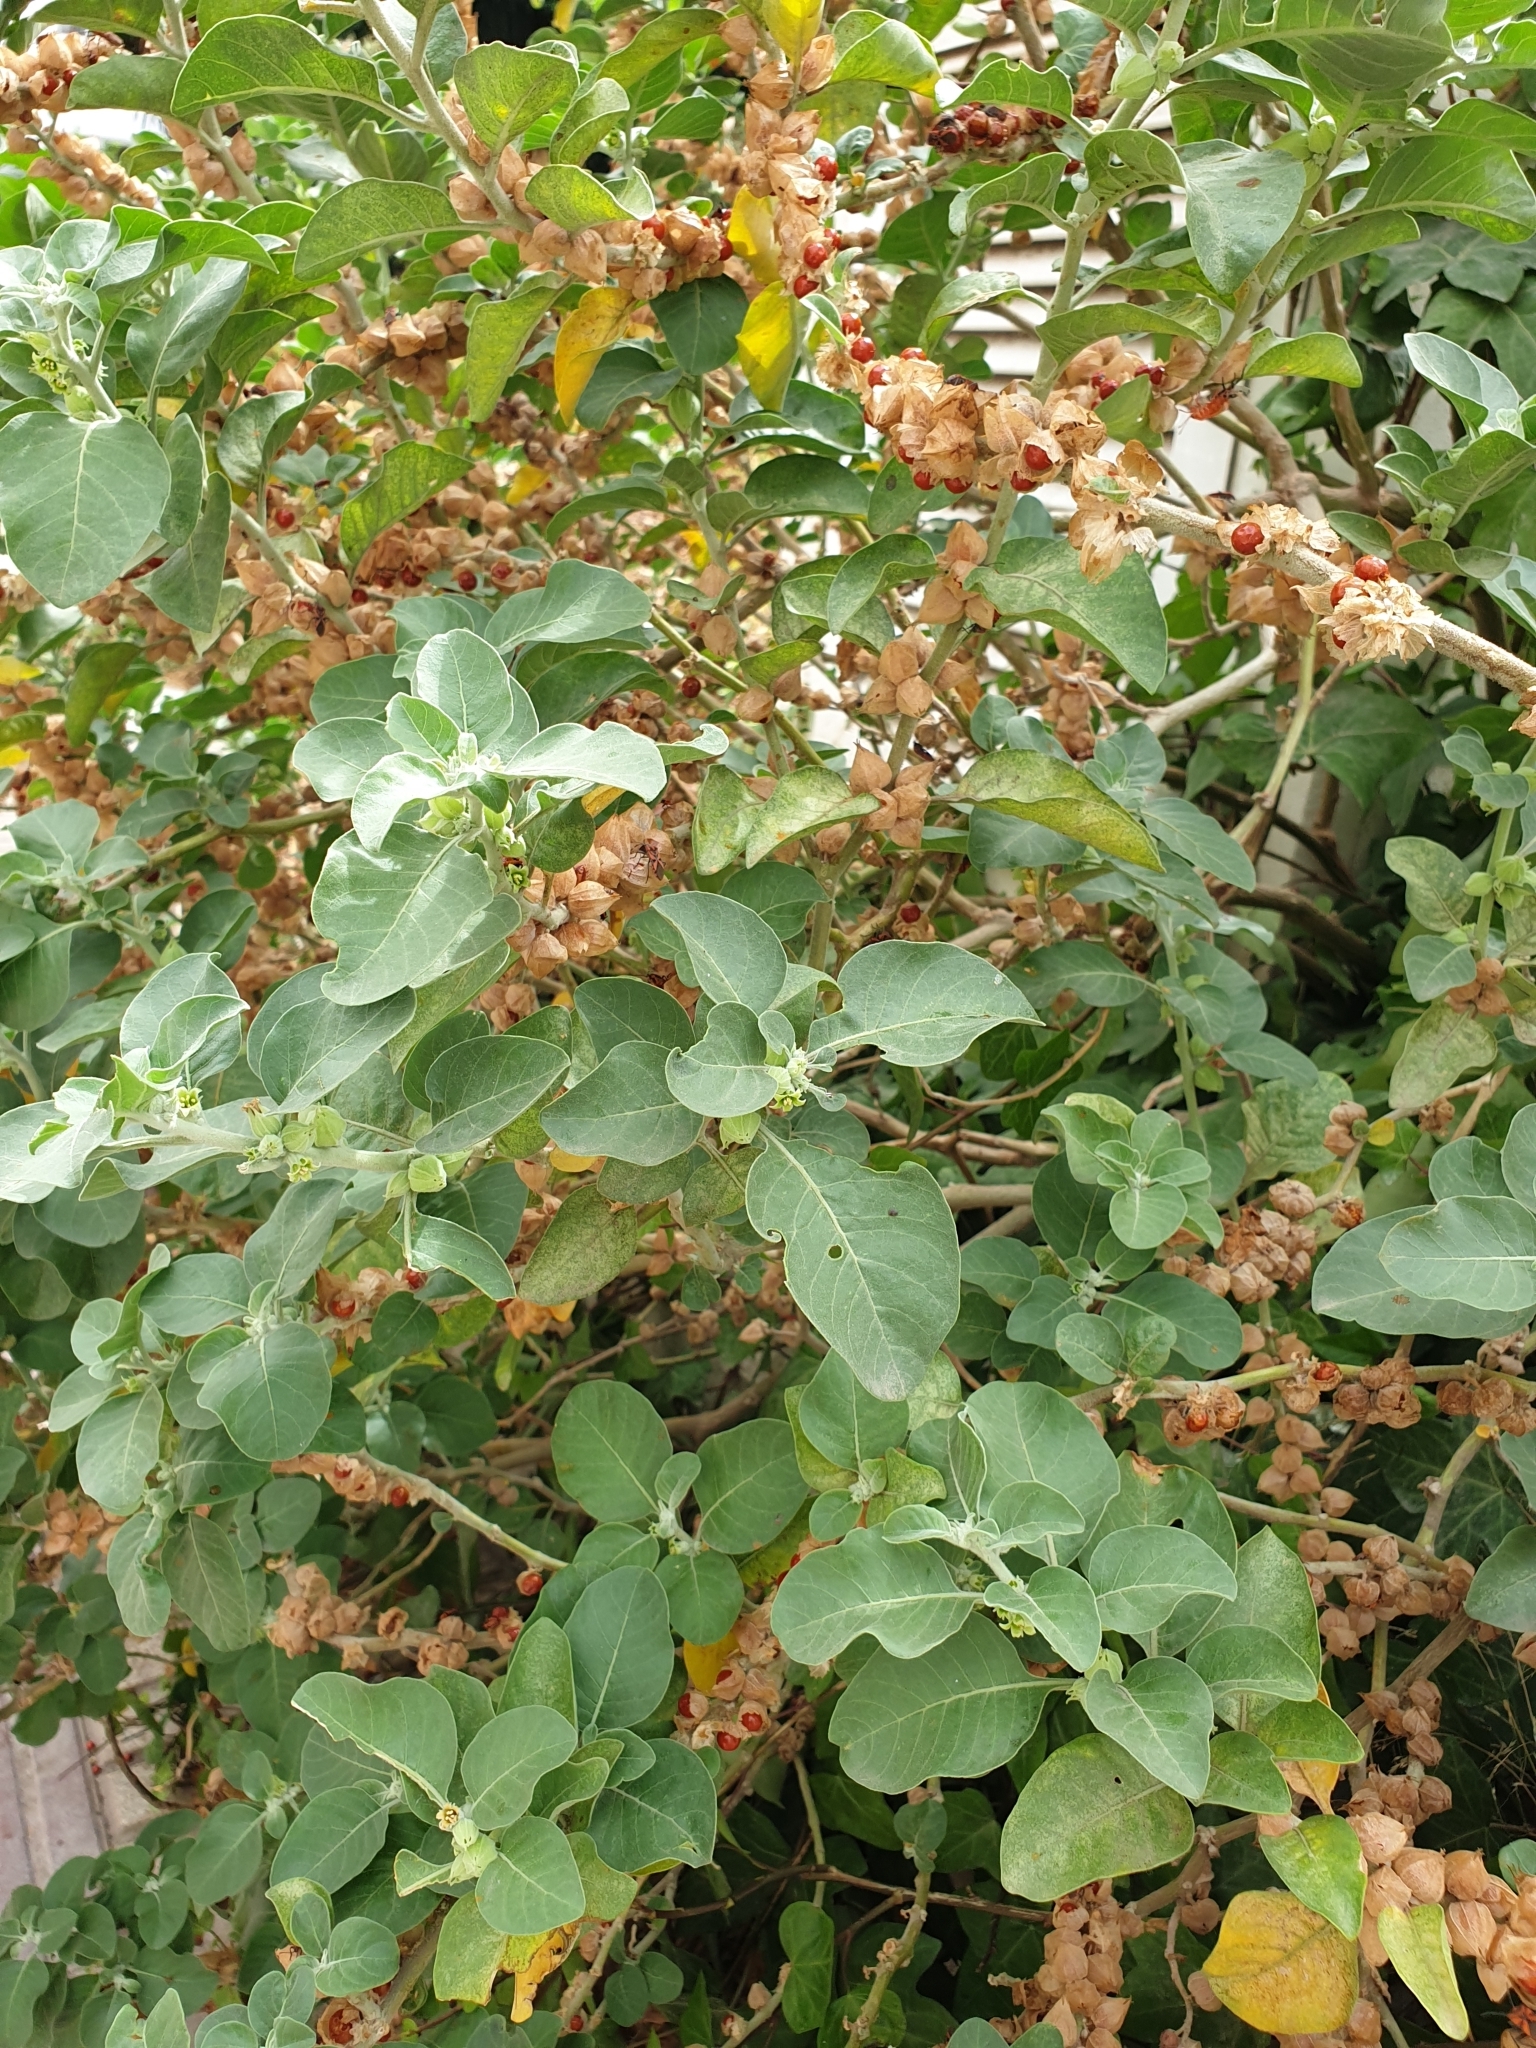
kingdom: Plantae
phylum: Tracheophyta
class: Magnoliopsida
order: Solanales
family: Solanaceae
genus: Withania
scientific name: Withania somnifera
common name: Winter-cherry
